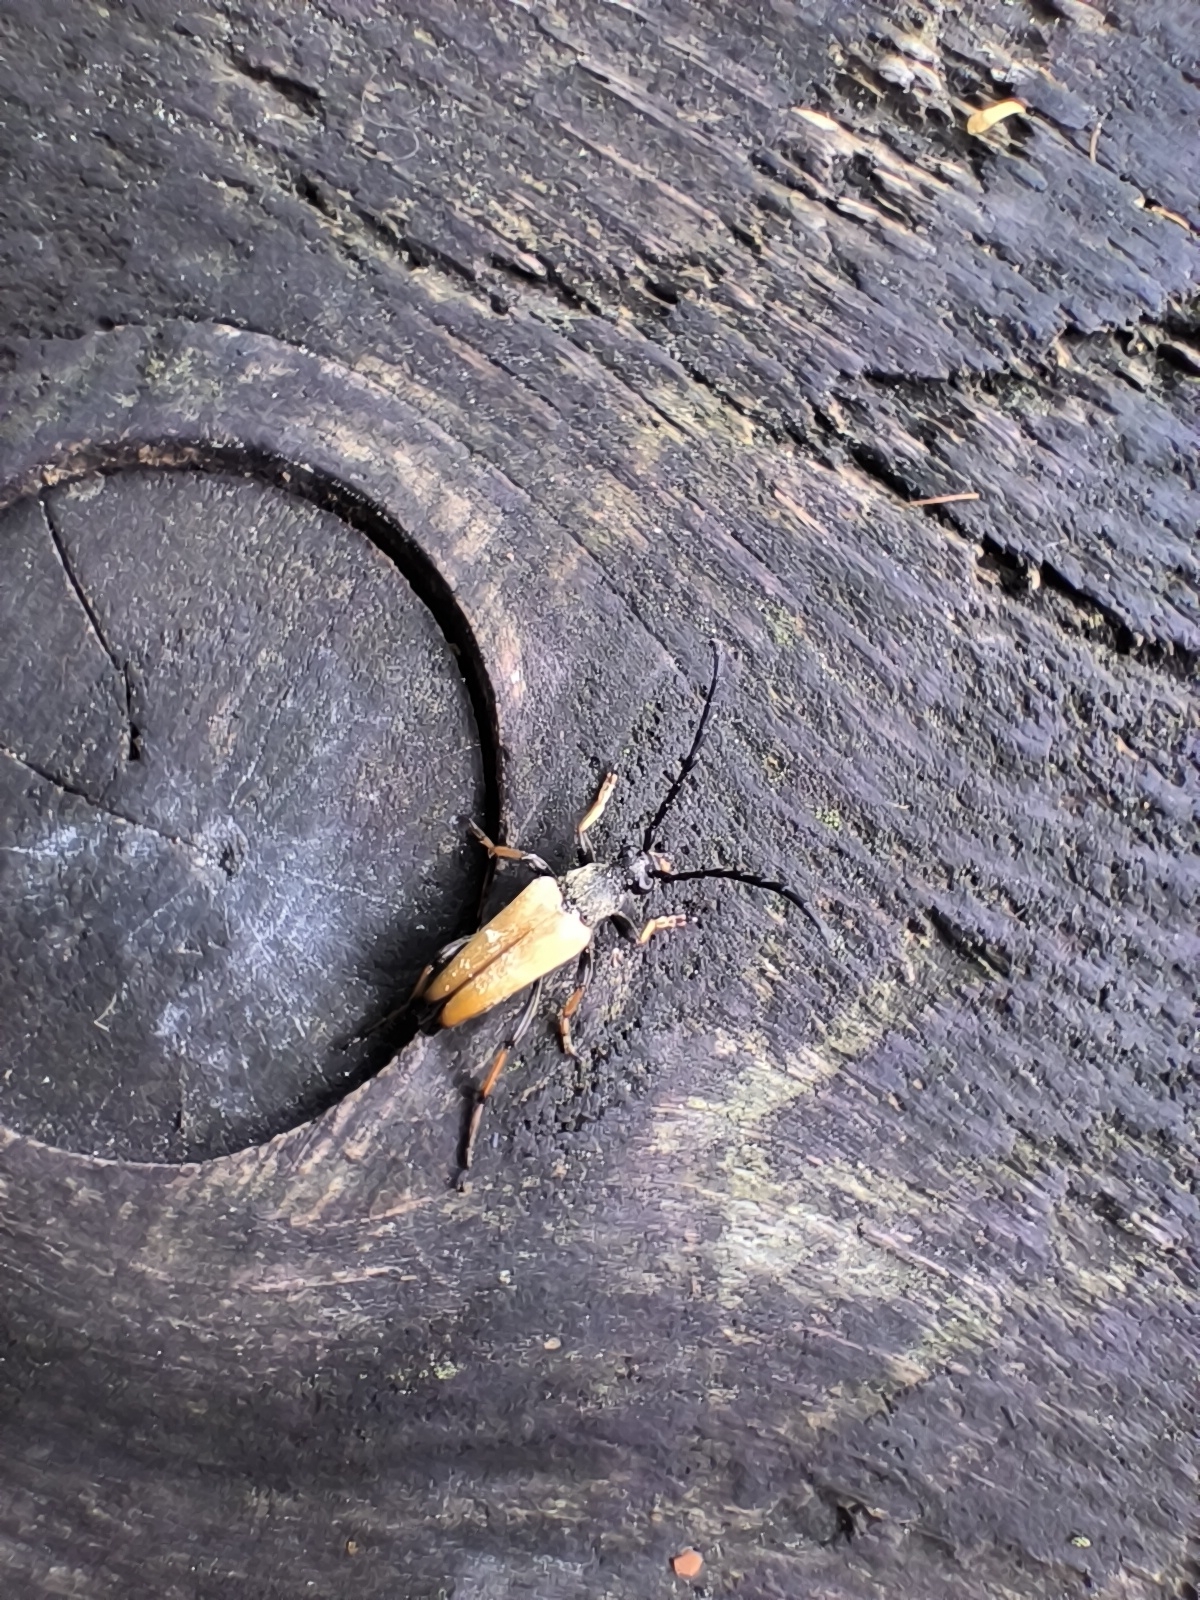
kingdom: Animalia
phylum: Arthropoda
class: Insecta
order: Coleoptera
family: Cerambycidae
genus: Stictoleptura
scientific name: Stictoleptura rubra
